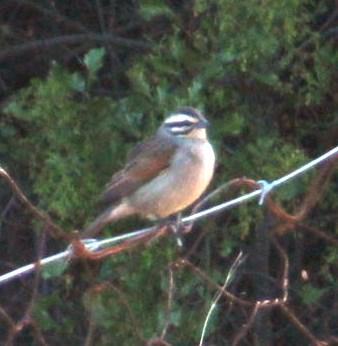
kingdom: Animalia
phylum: Chordata
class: Aves
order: Passeriformes
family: Emberizidae
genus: Emberiza
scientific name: Emberiza capensis
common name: Cape bunting
